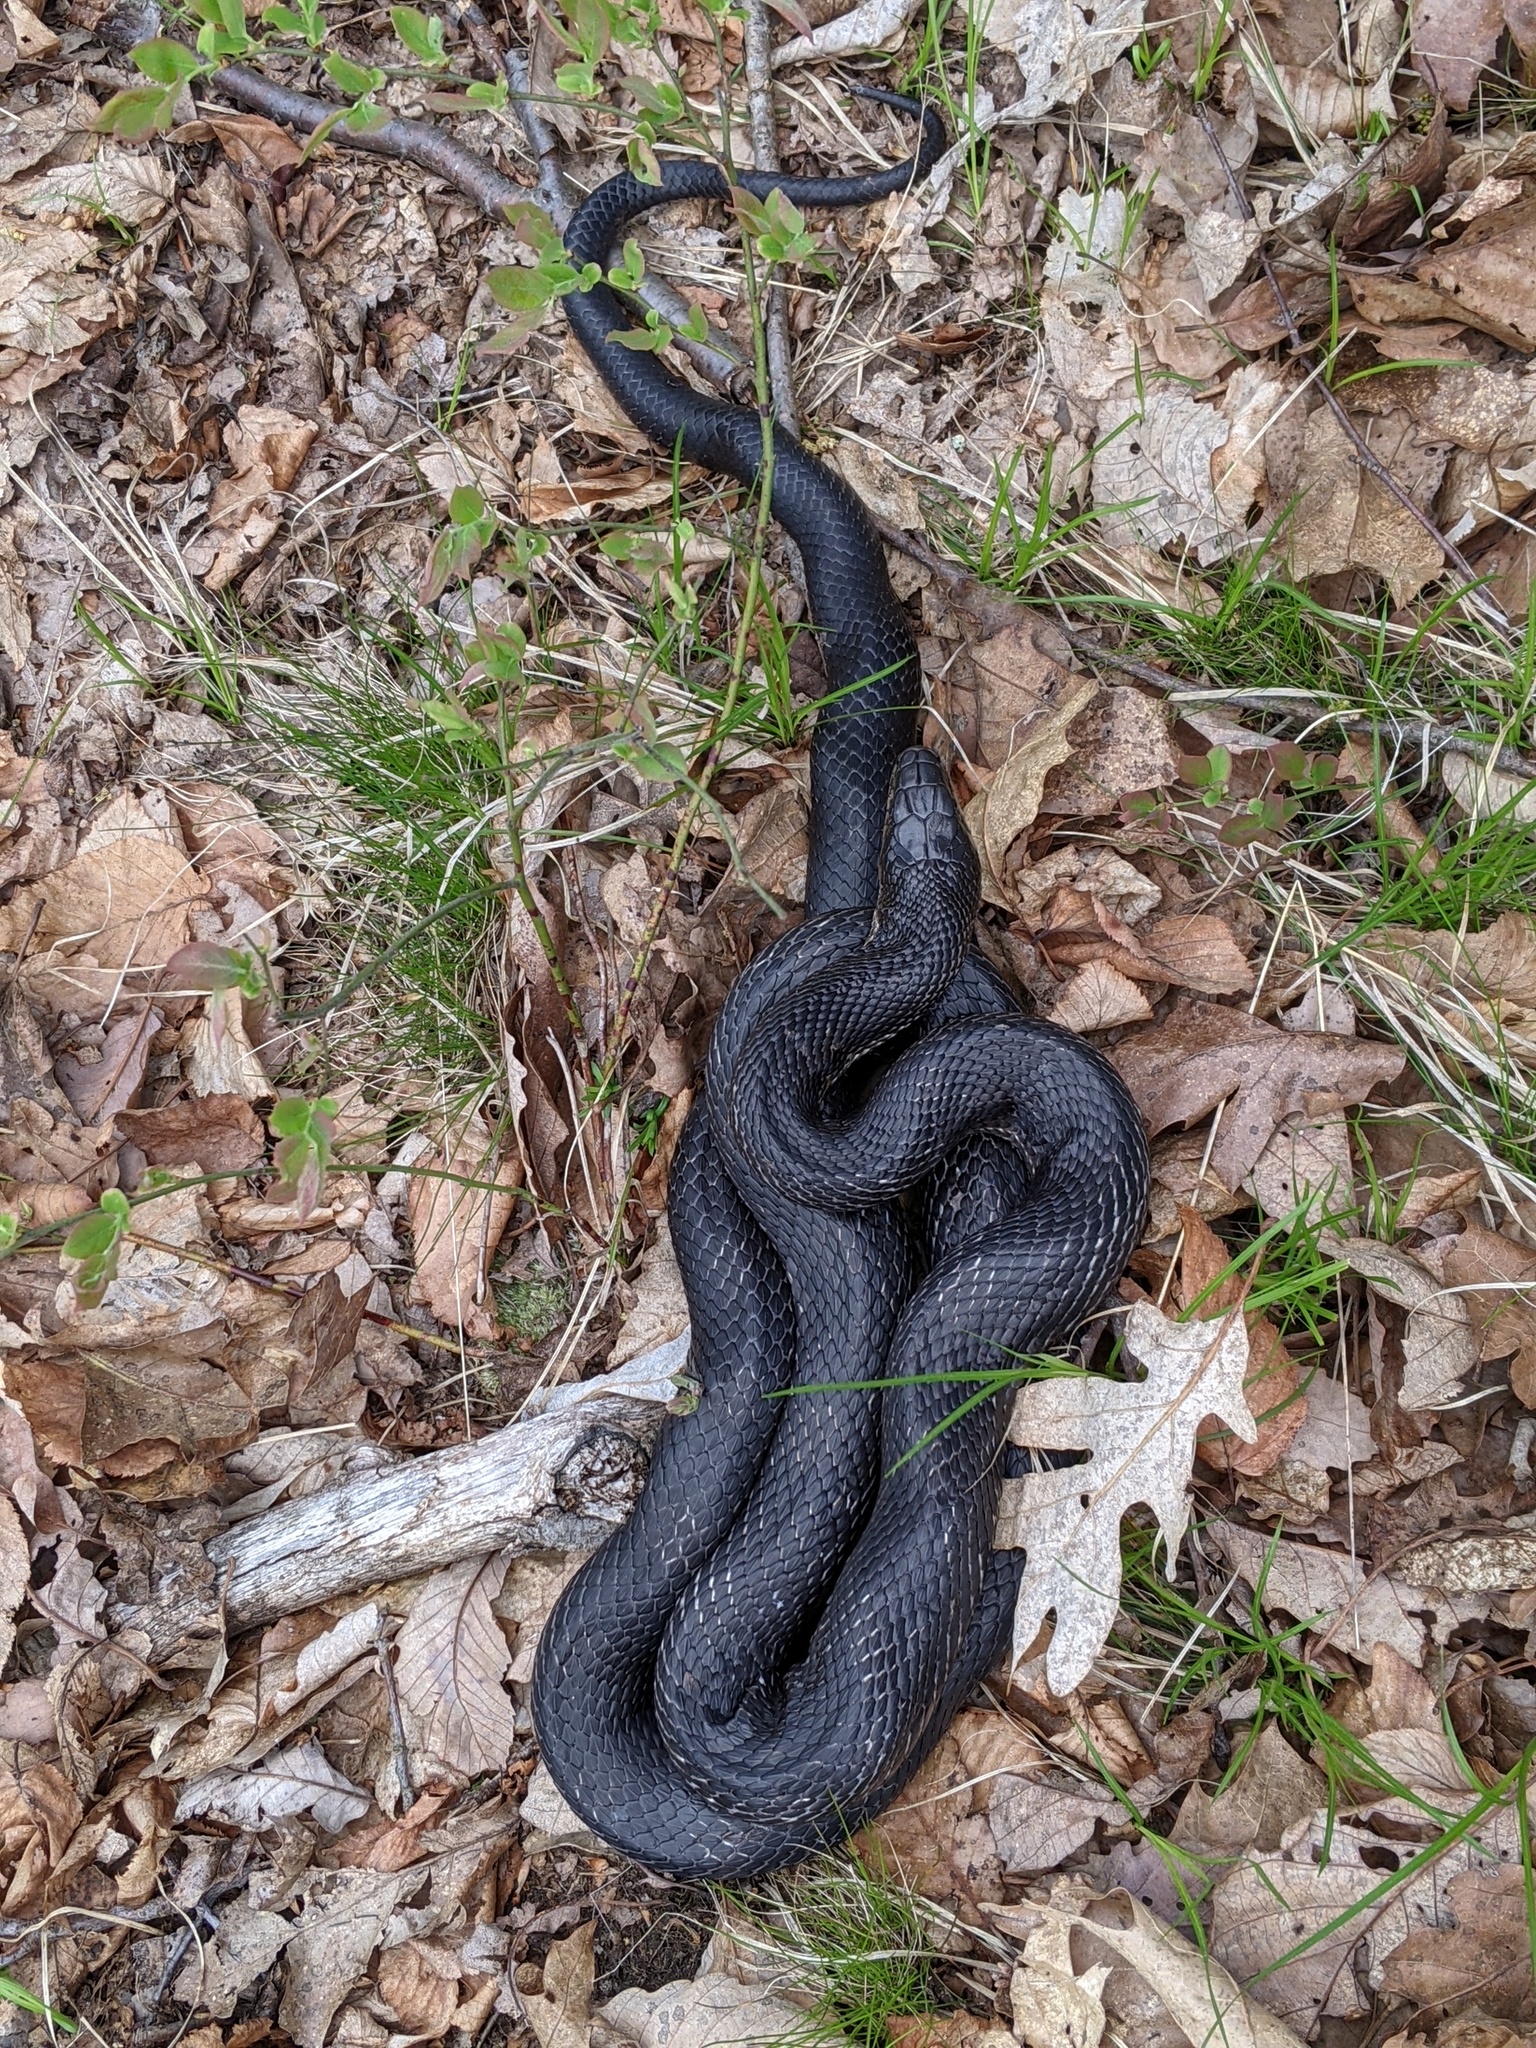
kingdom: Animalia
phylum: Chordata
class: Squamata
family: Colubridae
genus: Pantherophis
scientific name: Pantherophis alleghaniensis
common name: Eastern rat snake
